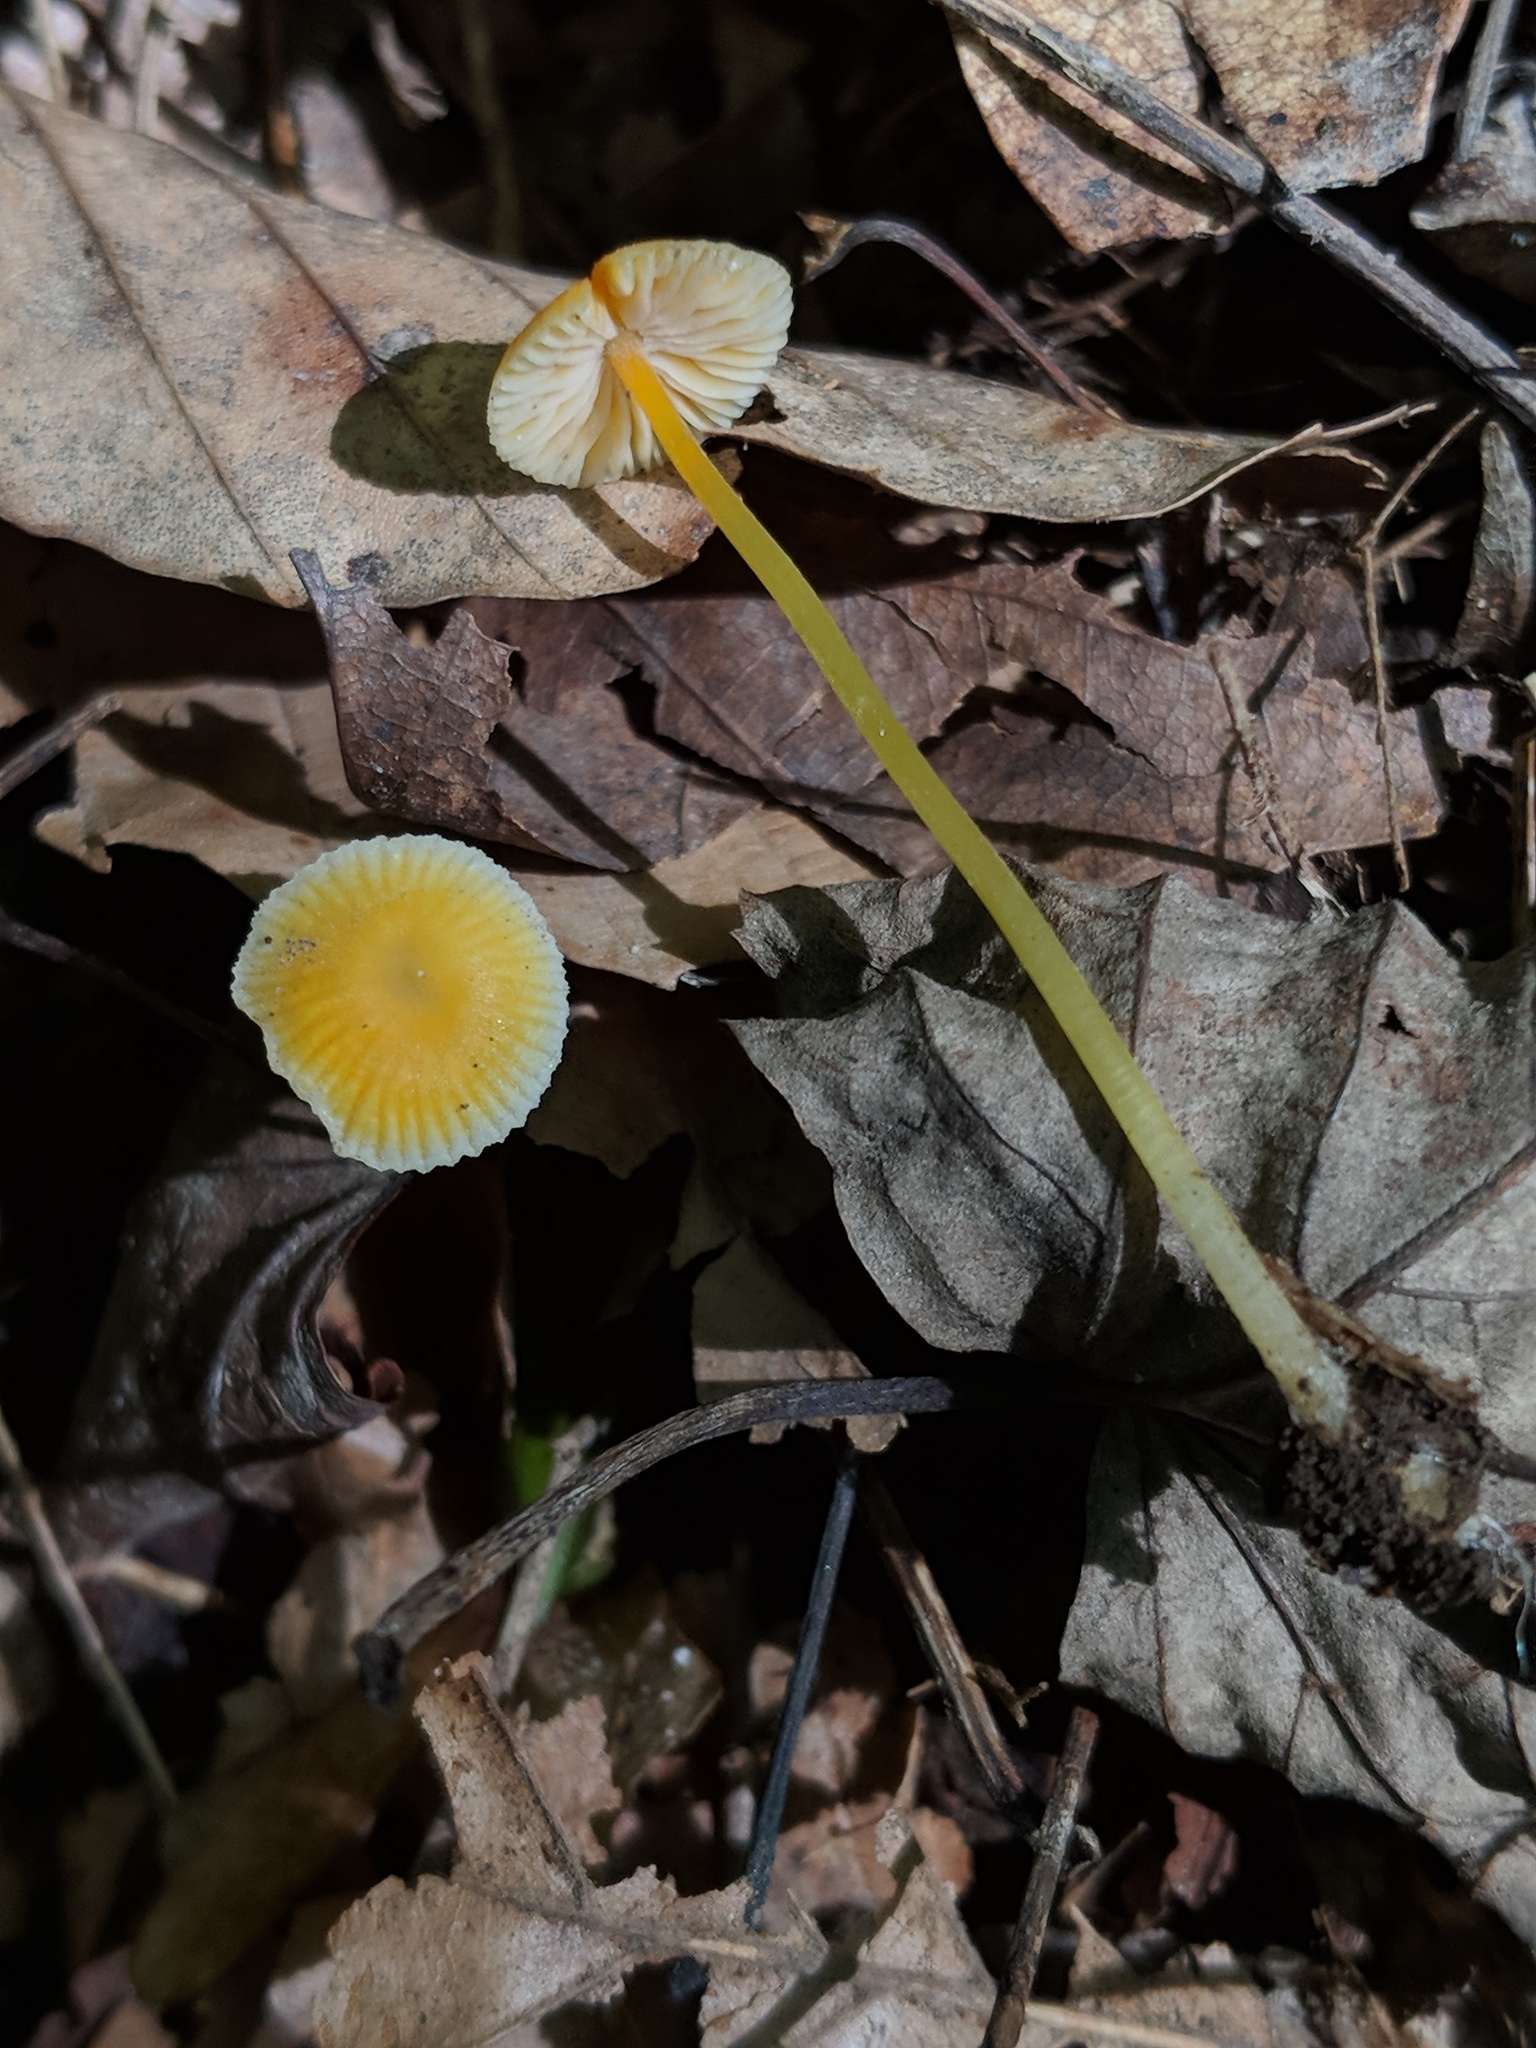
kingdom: Fungi
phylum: Basidiomycota
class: Agaricomycetes
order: Agaricales
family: Mycenaceae
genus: Mycena
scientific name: Mycena crocea
